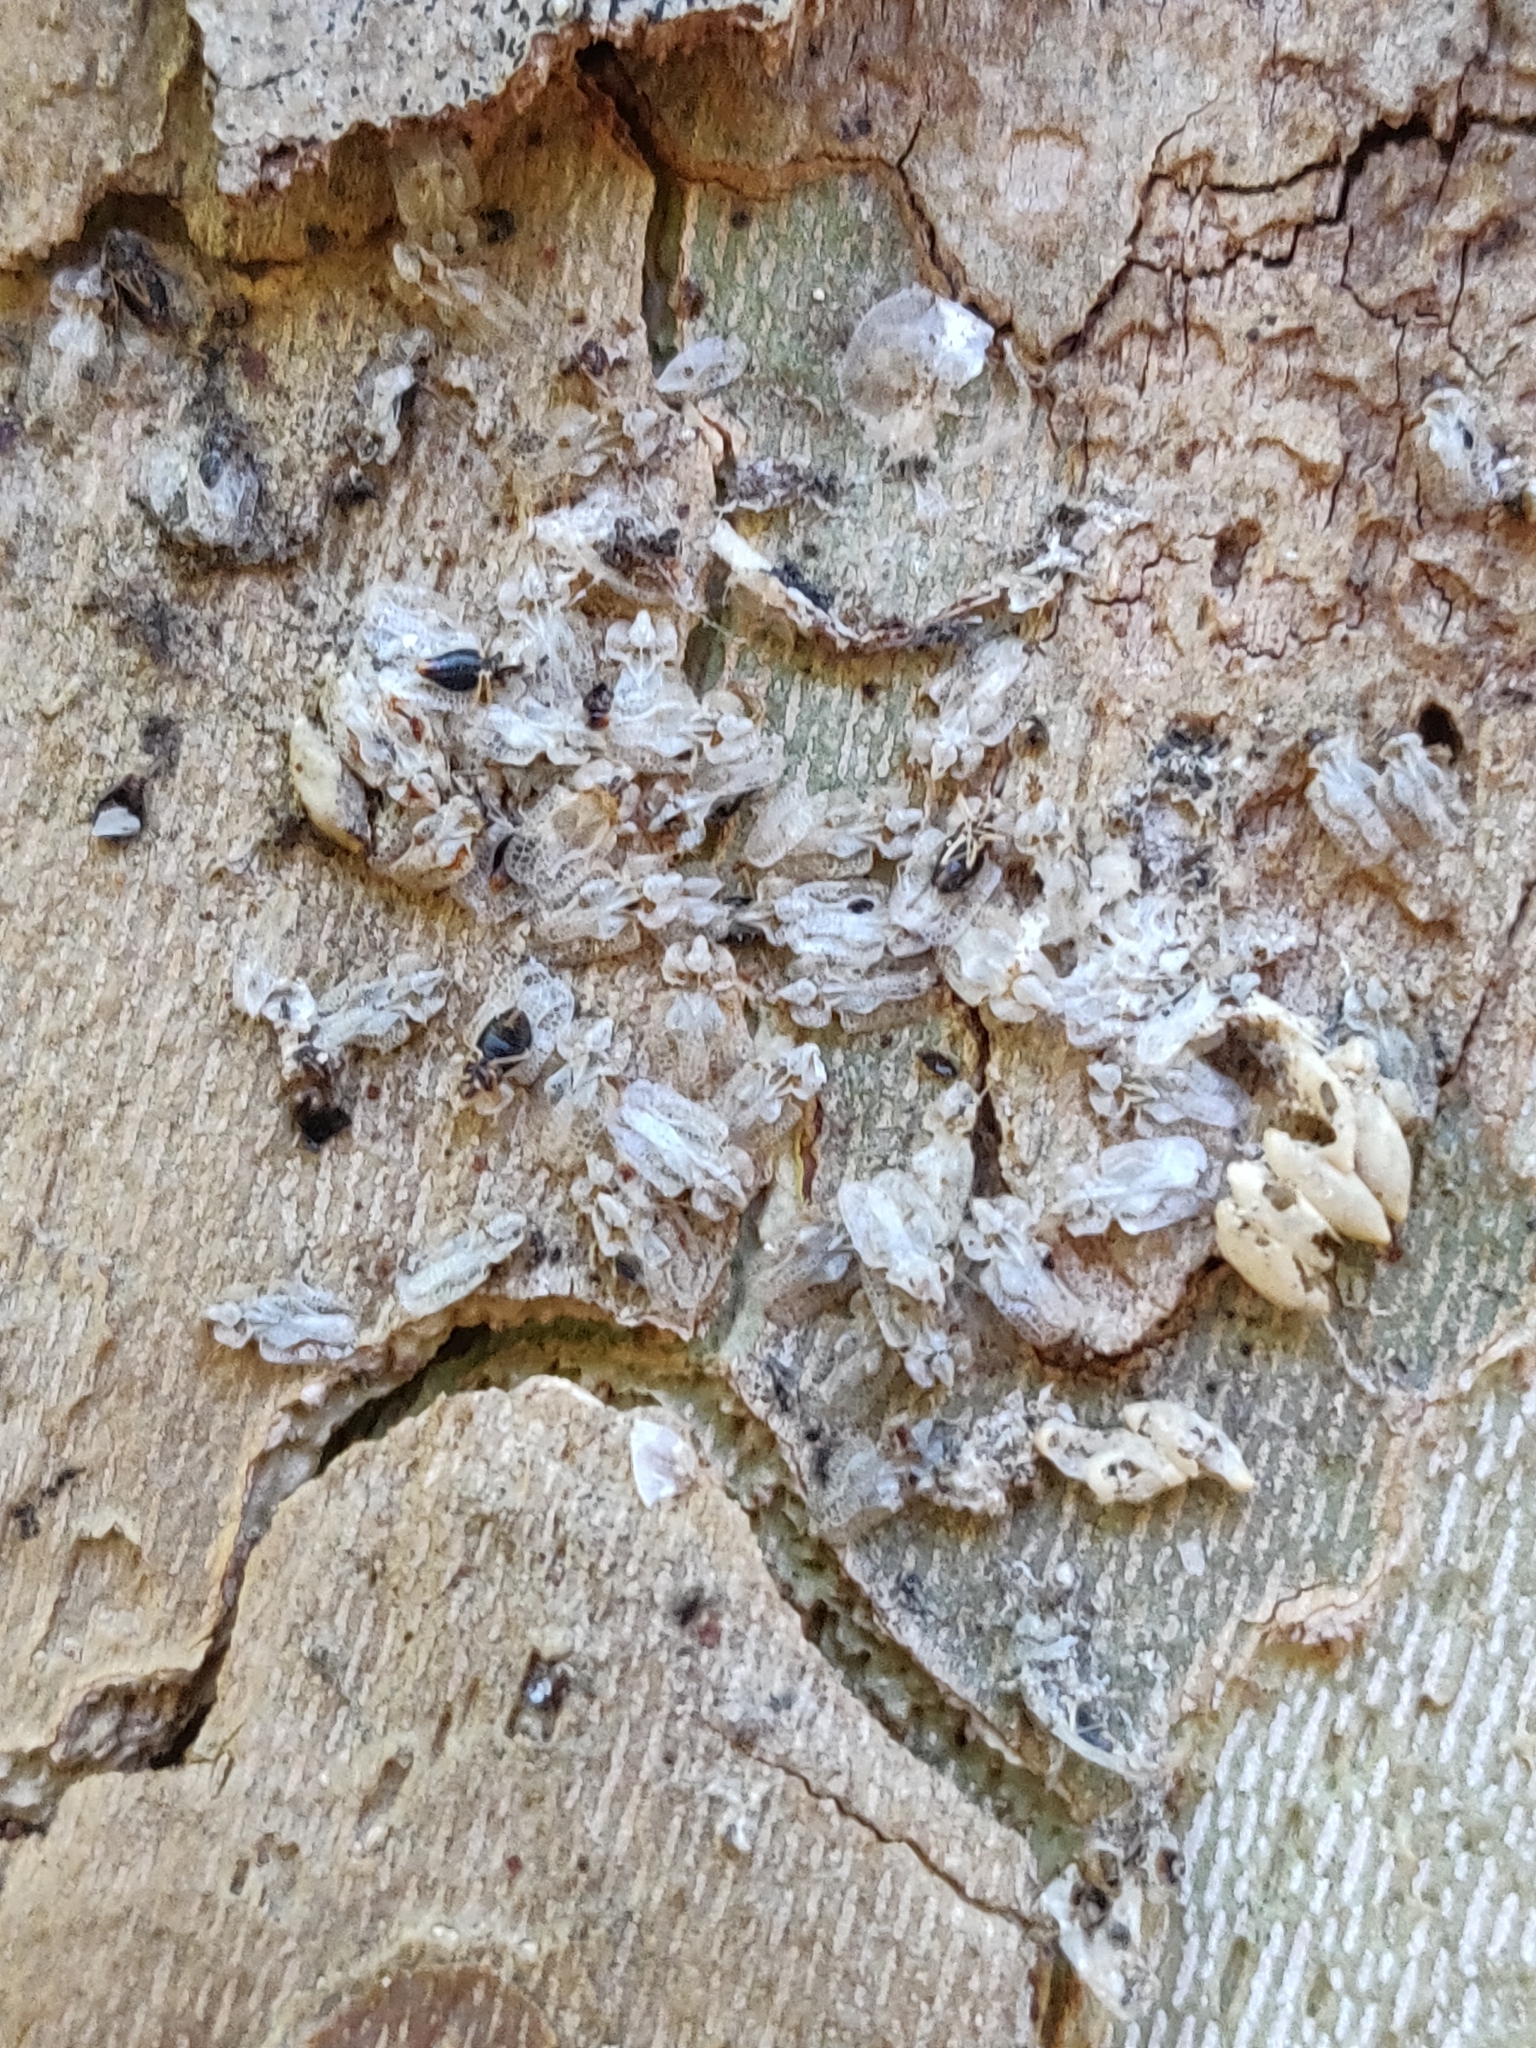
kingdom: Animalia
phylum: Arthropoda
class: Insecta
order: Hemiptera
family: Tingidae
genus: Corythucha
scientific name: Corythucha ciliata
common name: Sycamore lace bug
